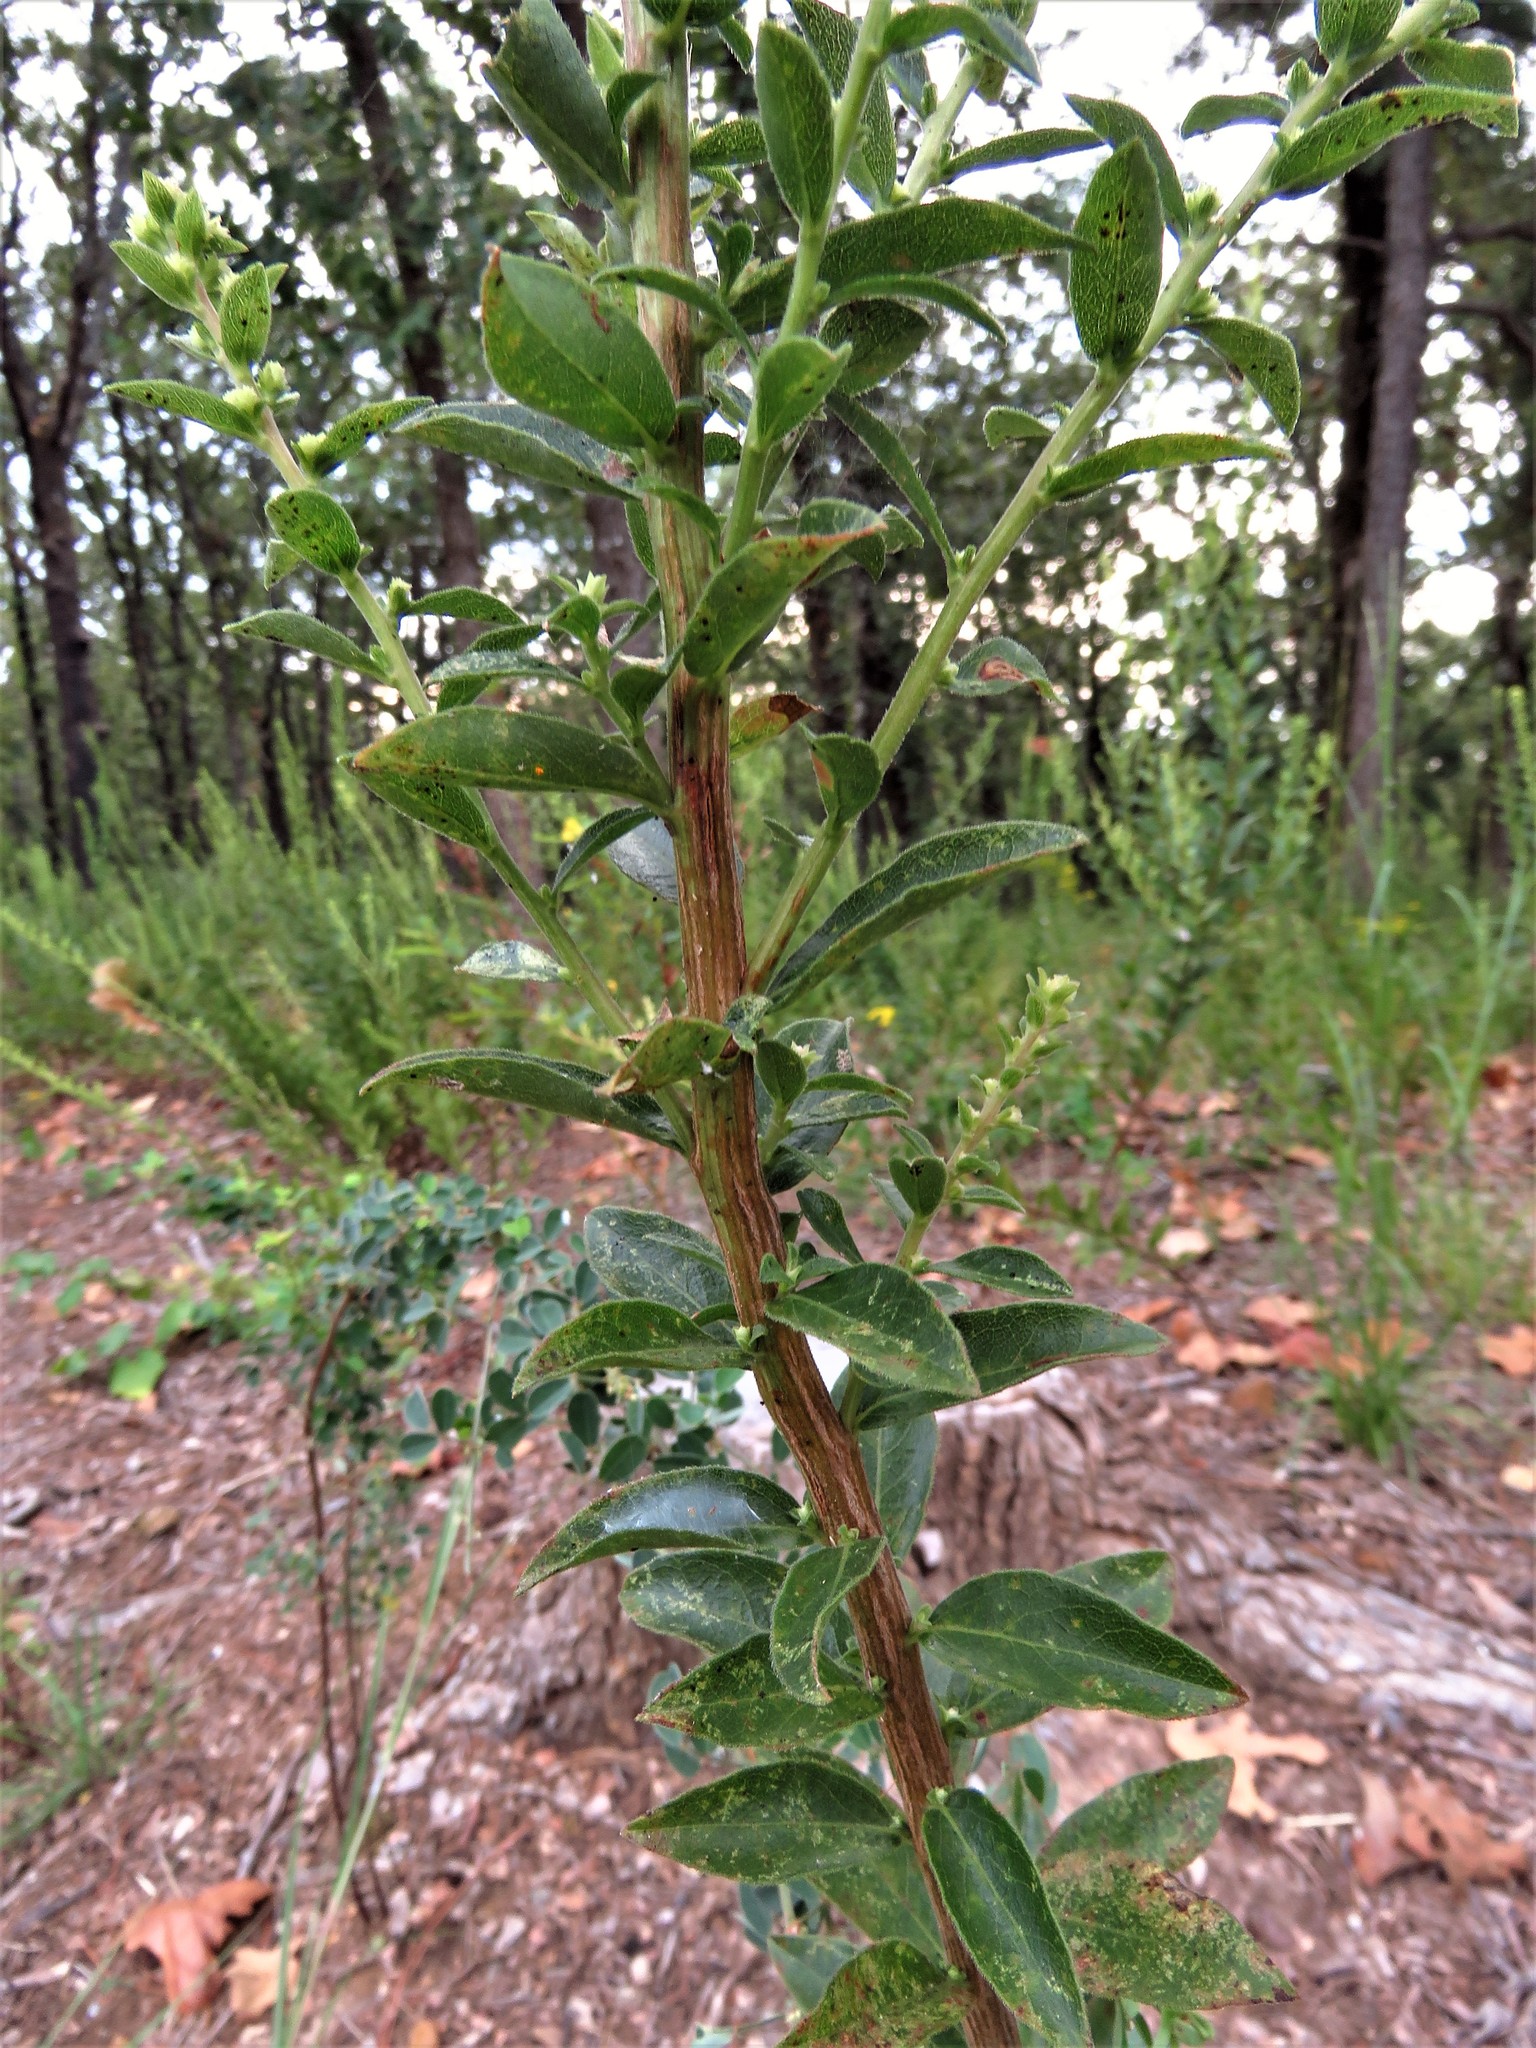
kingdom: Plantae
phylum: Tracheophyta
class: Magnoliopsida
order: Asterales
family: Asteraceae
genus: Solidago
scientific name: Solidago petiolaris
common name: Downy ragged goldenrod
